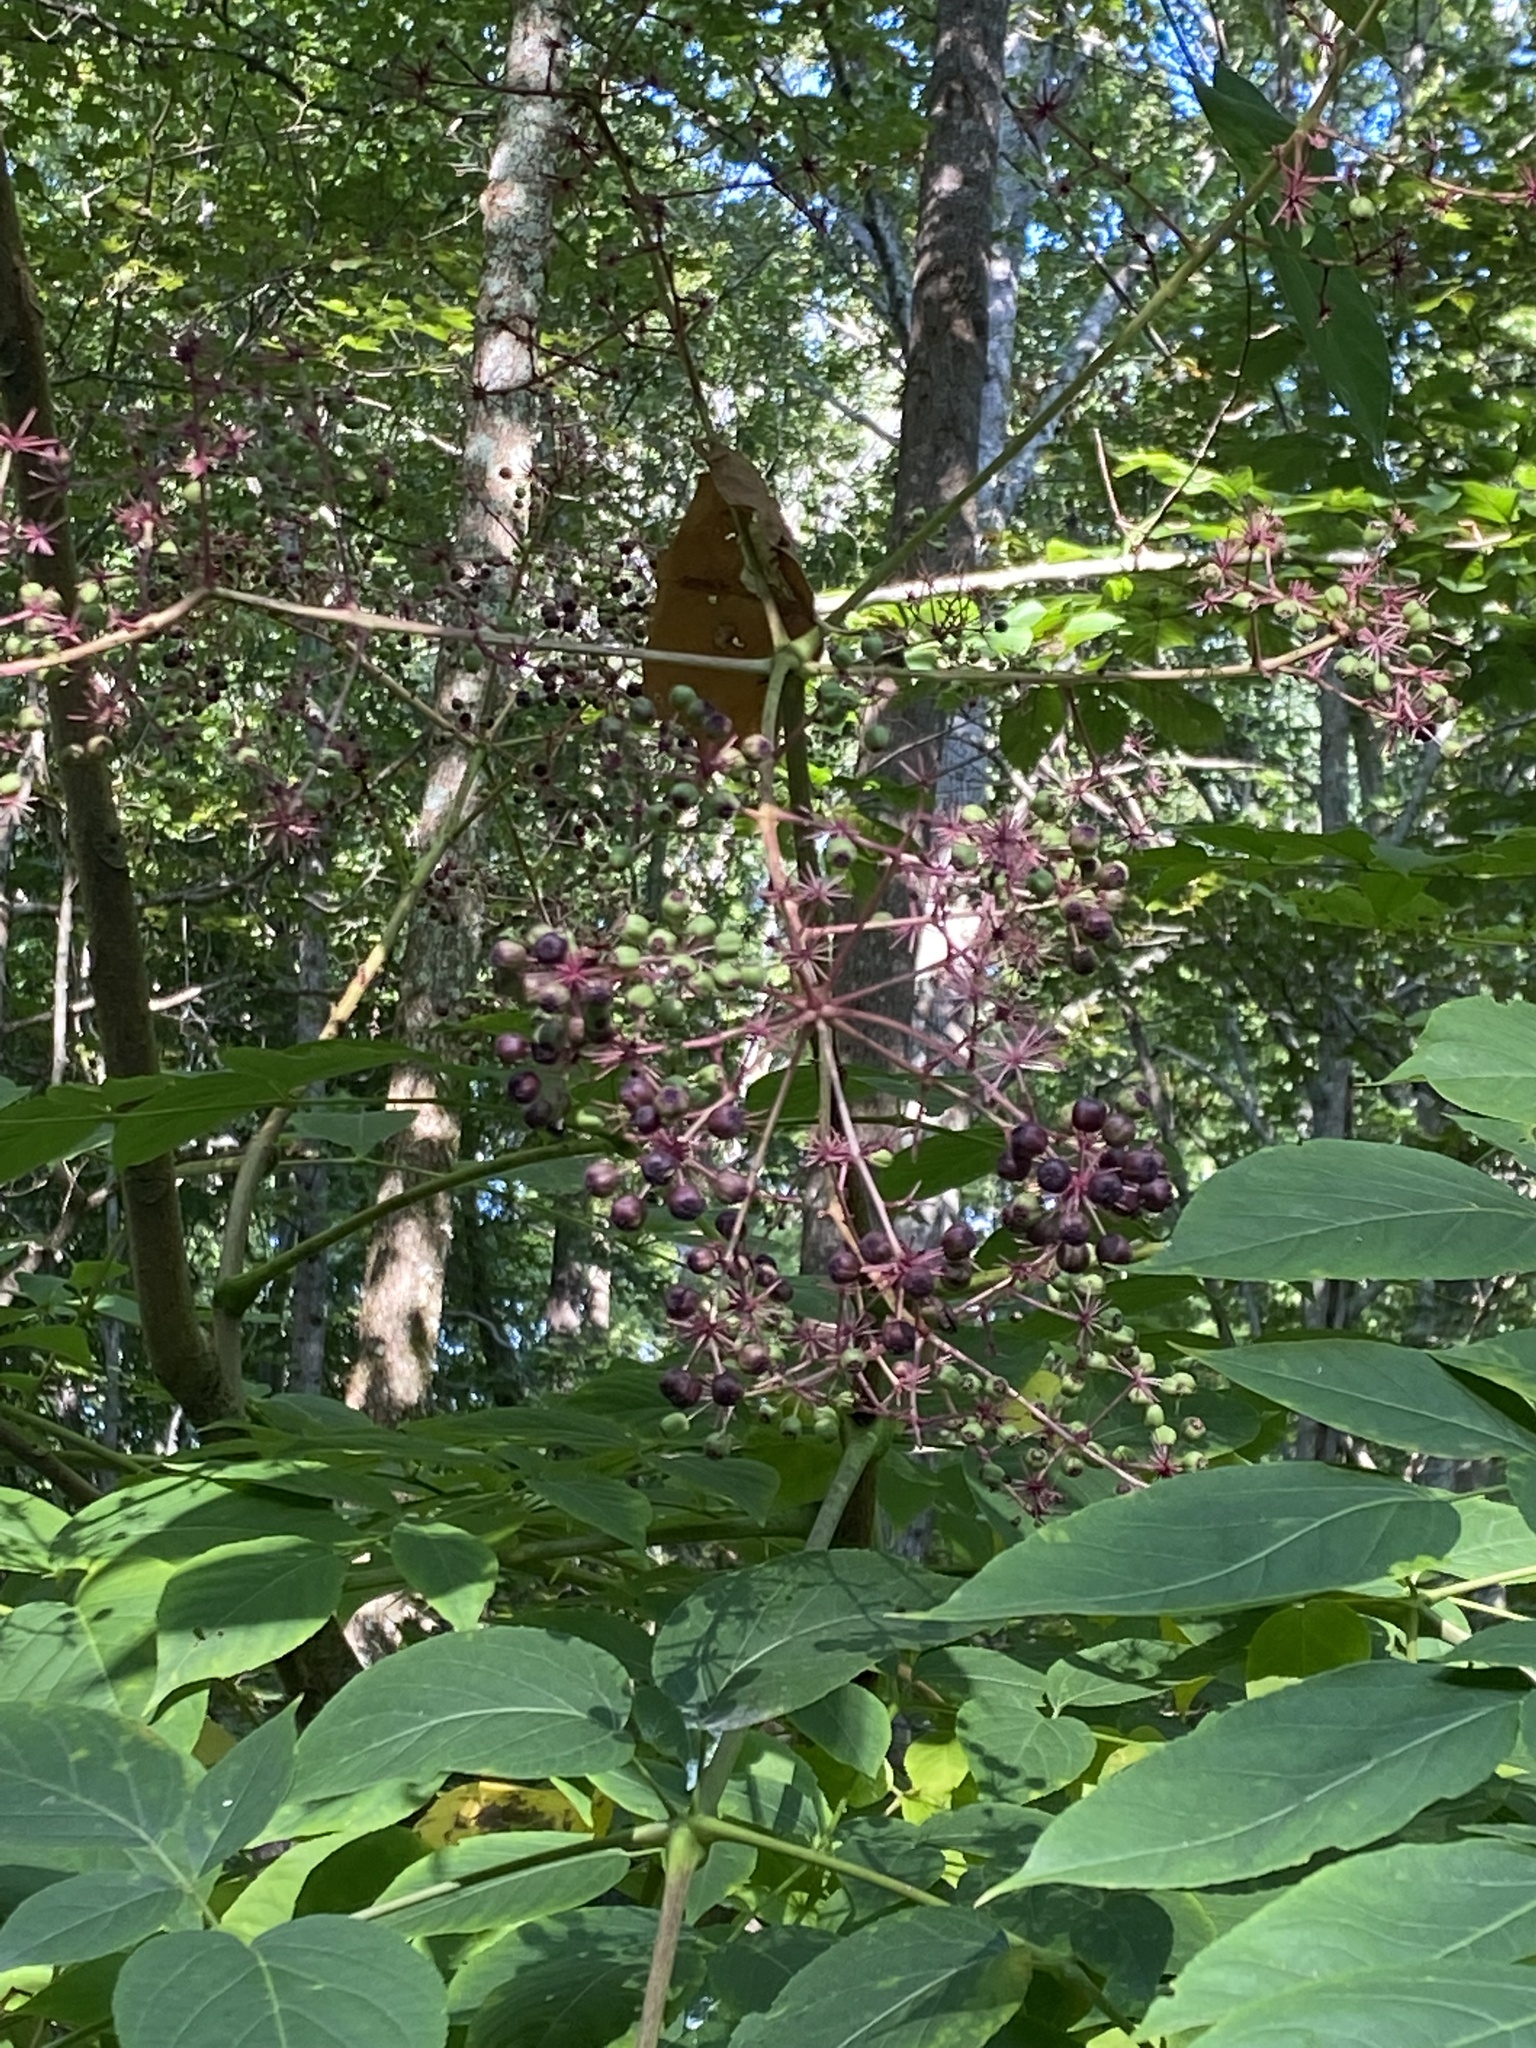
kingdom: Plantae
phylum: Tracheophyta
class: Magnoliopsida
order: Apiales
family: Araliaceae
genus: Aralia
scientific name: Aralia spinosa
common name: Hercules'-club
